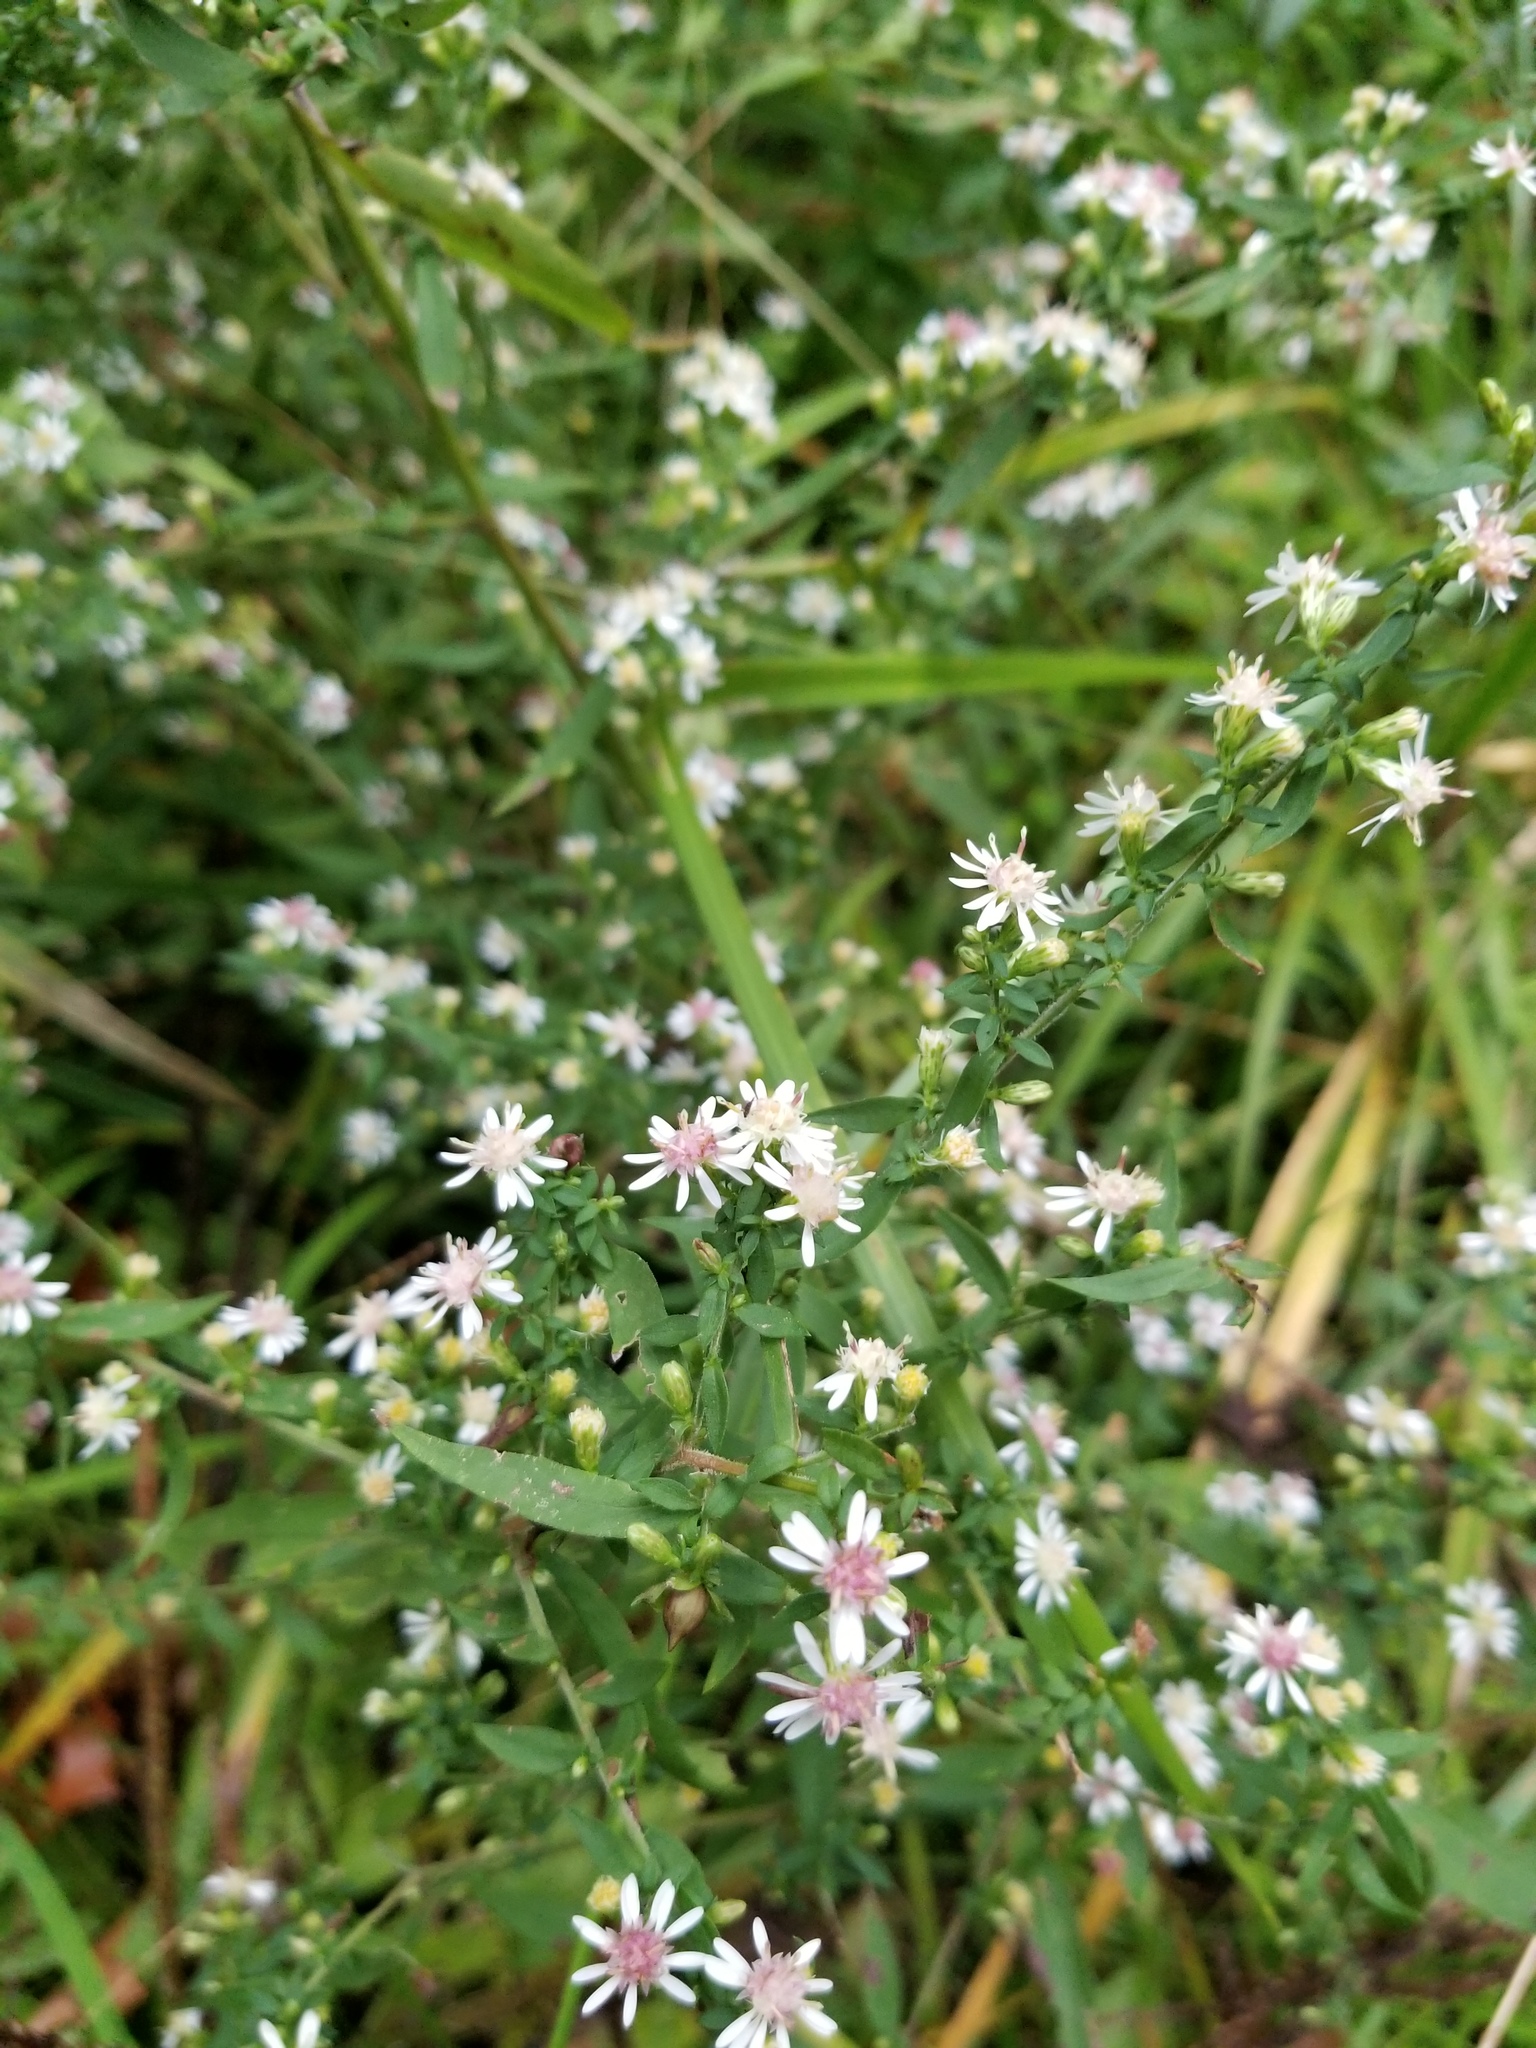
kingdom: Plantae
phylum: Tracheophyta
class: Magnoliopsida
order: Asterales
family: Asteraceae
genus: Symphyotrichum
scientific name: Symphyotrichum lateriflorum
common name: Calico aster
